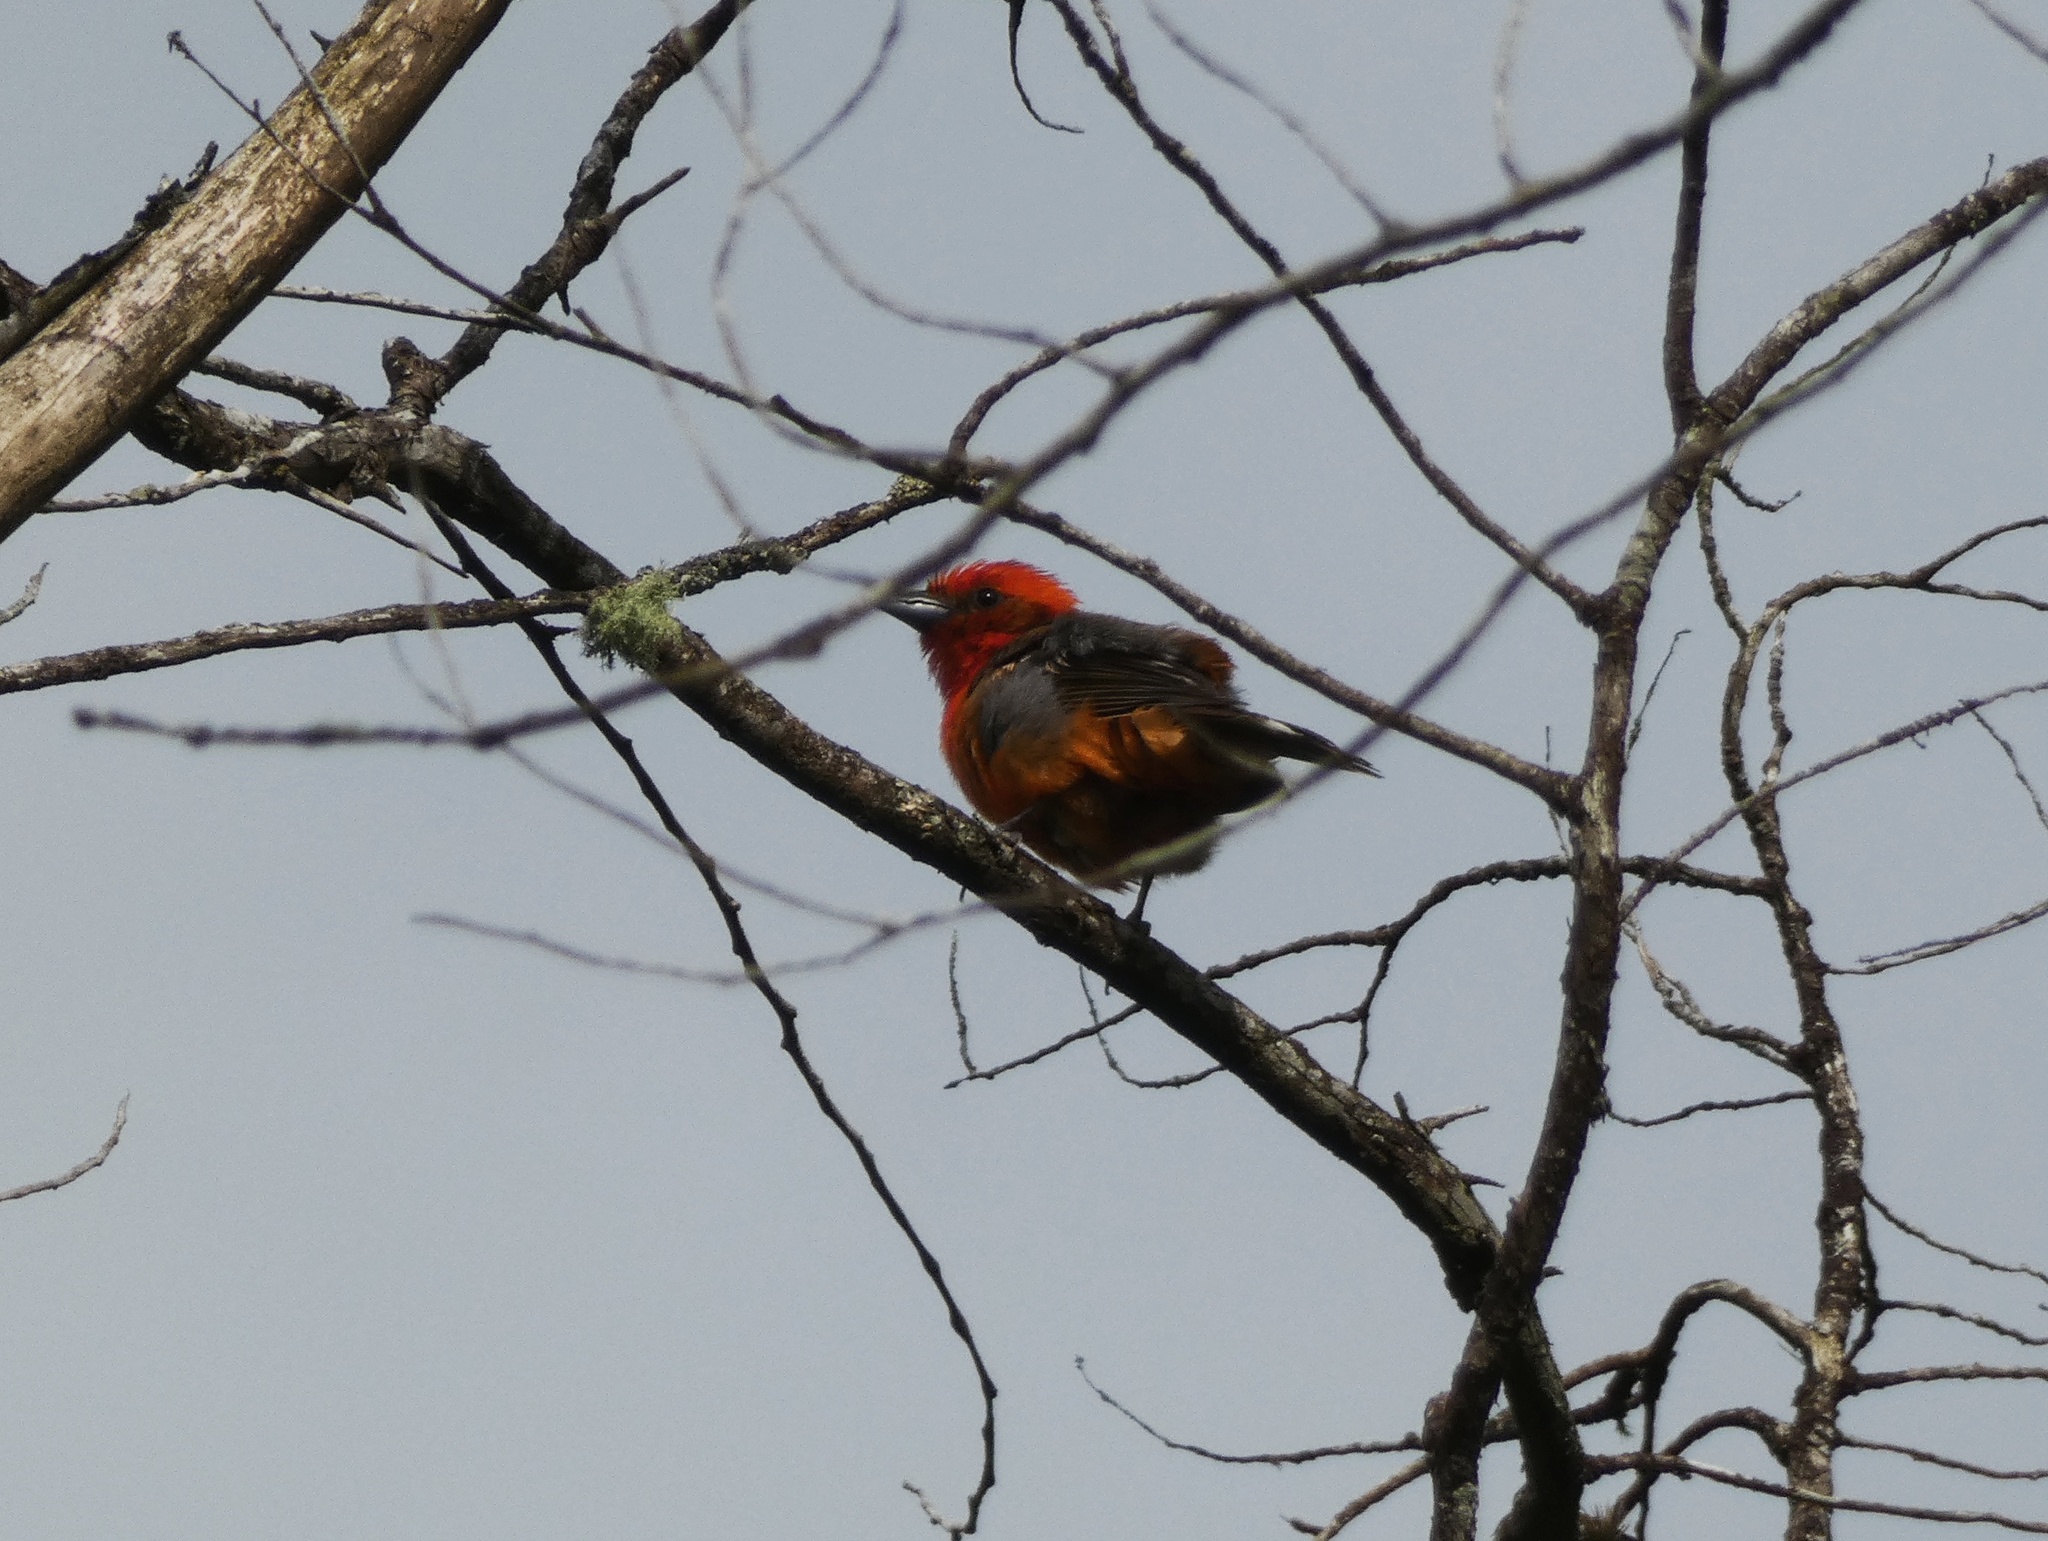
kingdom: Animalia
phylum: Chordata
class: Aves
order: Passeriformes
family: Cardinalidae
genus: Piranga
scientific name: Piranga bidentata
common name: Flame-colored tanager
